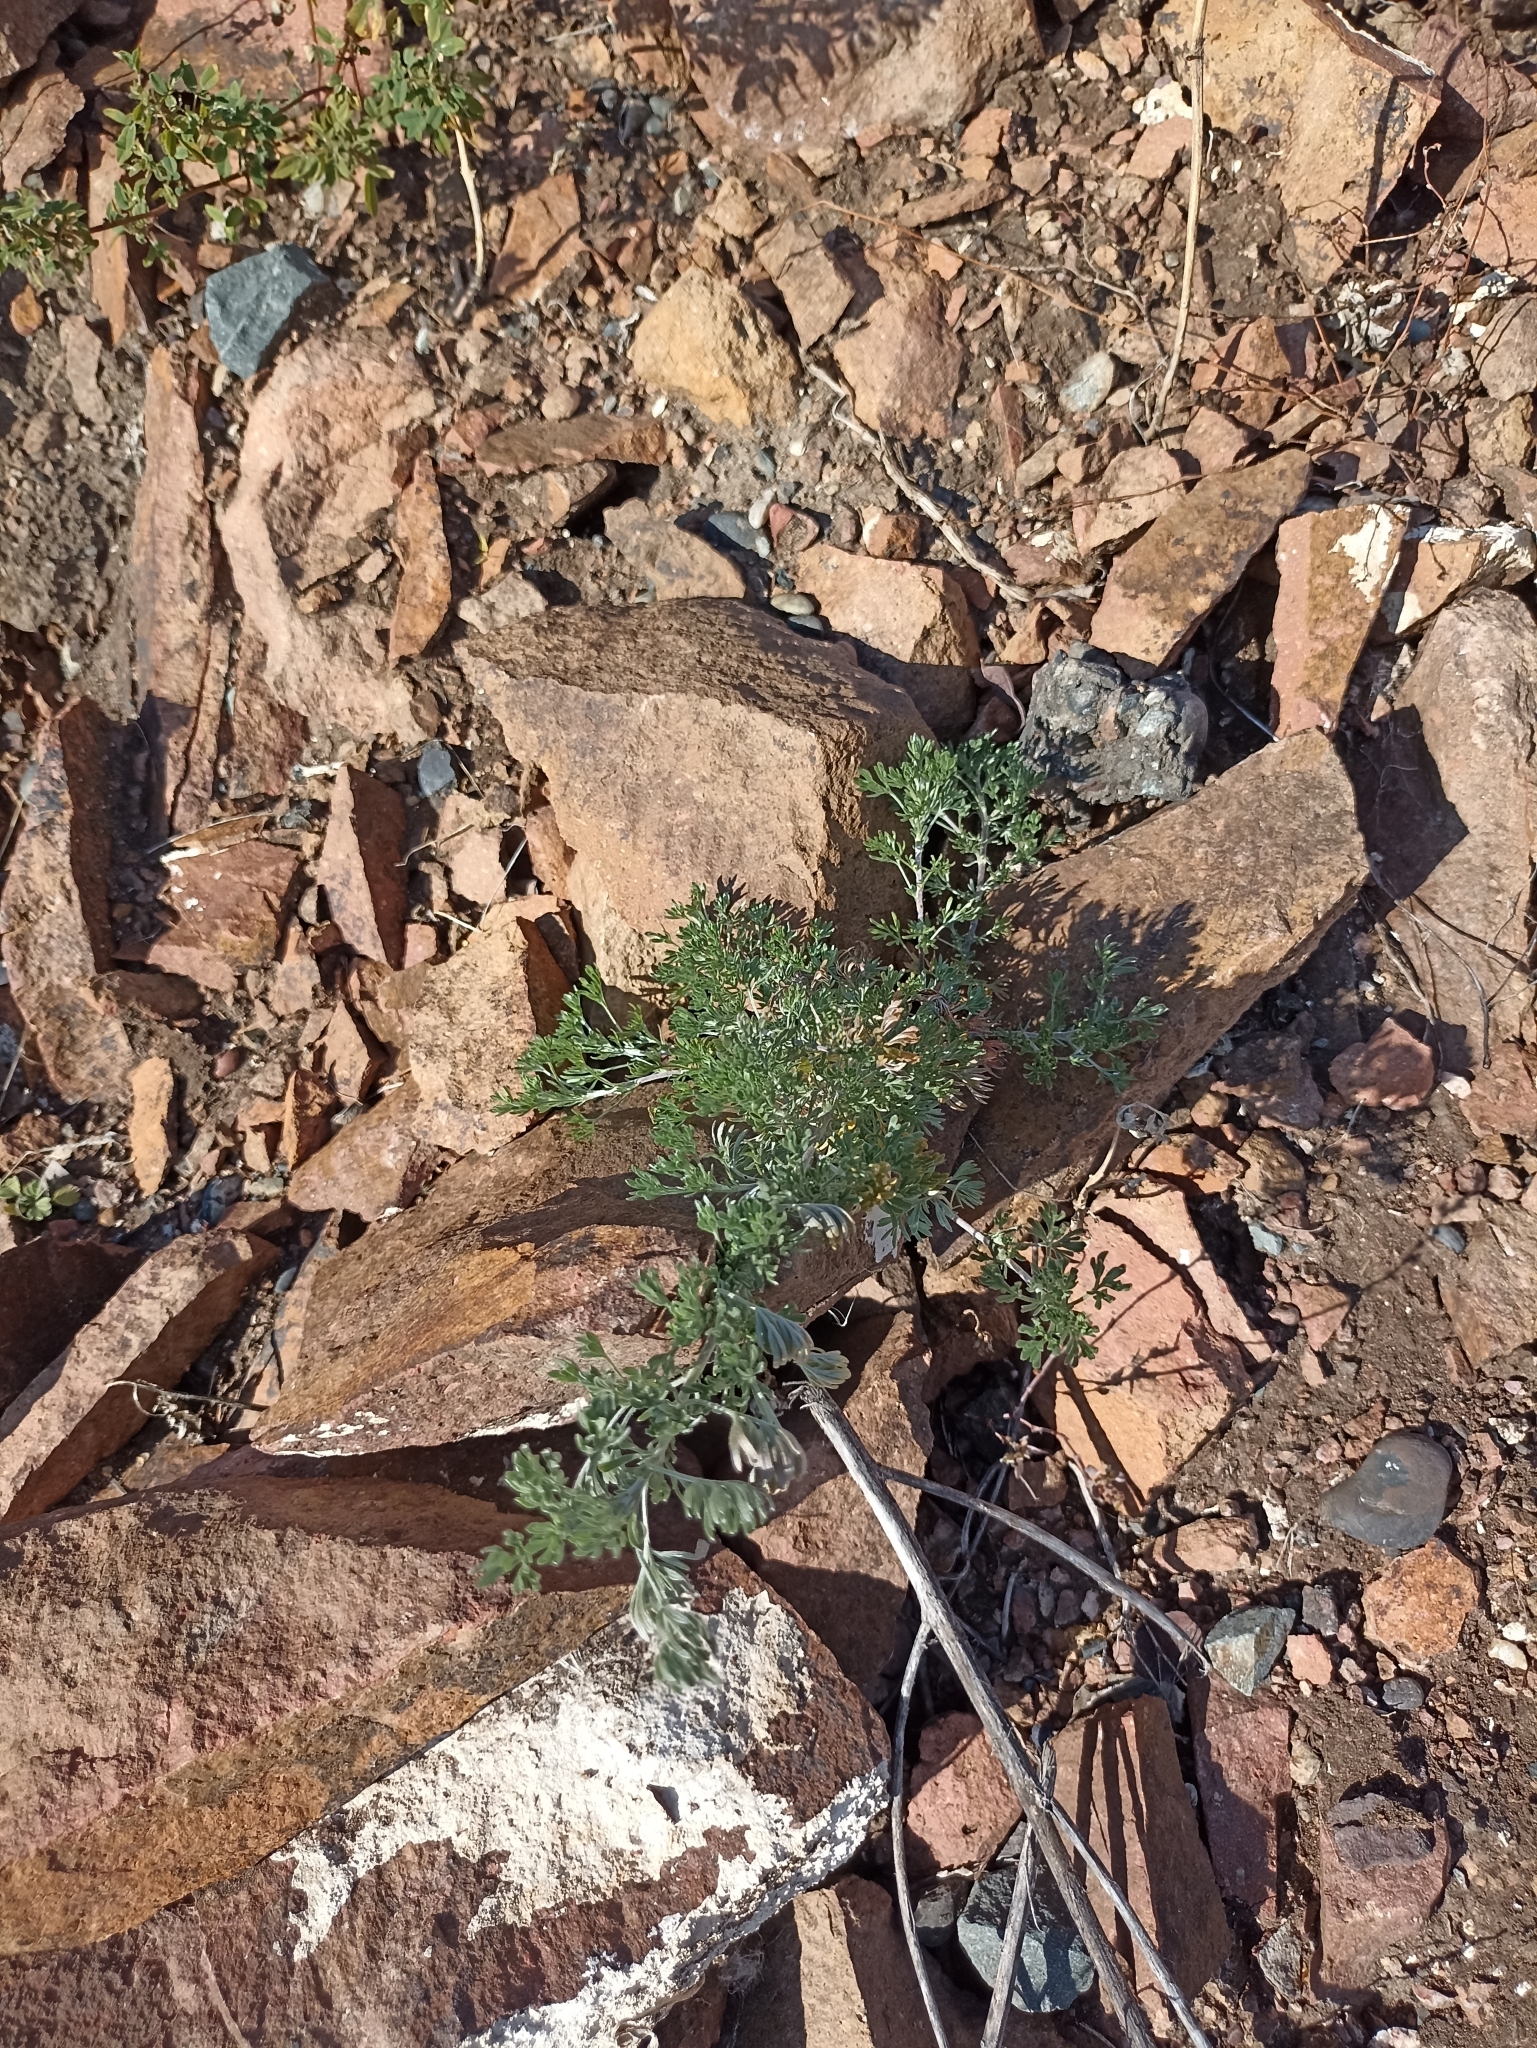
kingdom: Plantae
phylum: Tracheophyta
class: Magnoliopsida
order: Asterales
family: Asteraceae
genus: Artemisia
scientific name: Artemisia sieversiana
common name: Sieversian wormwood
